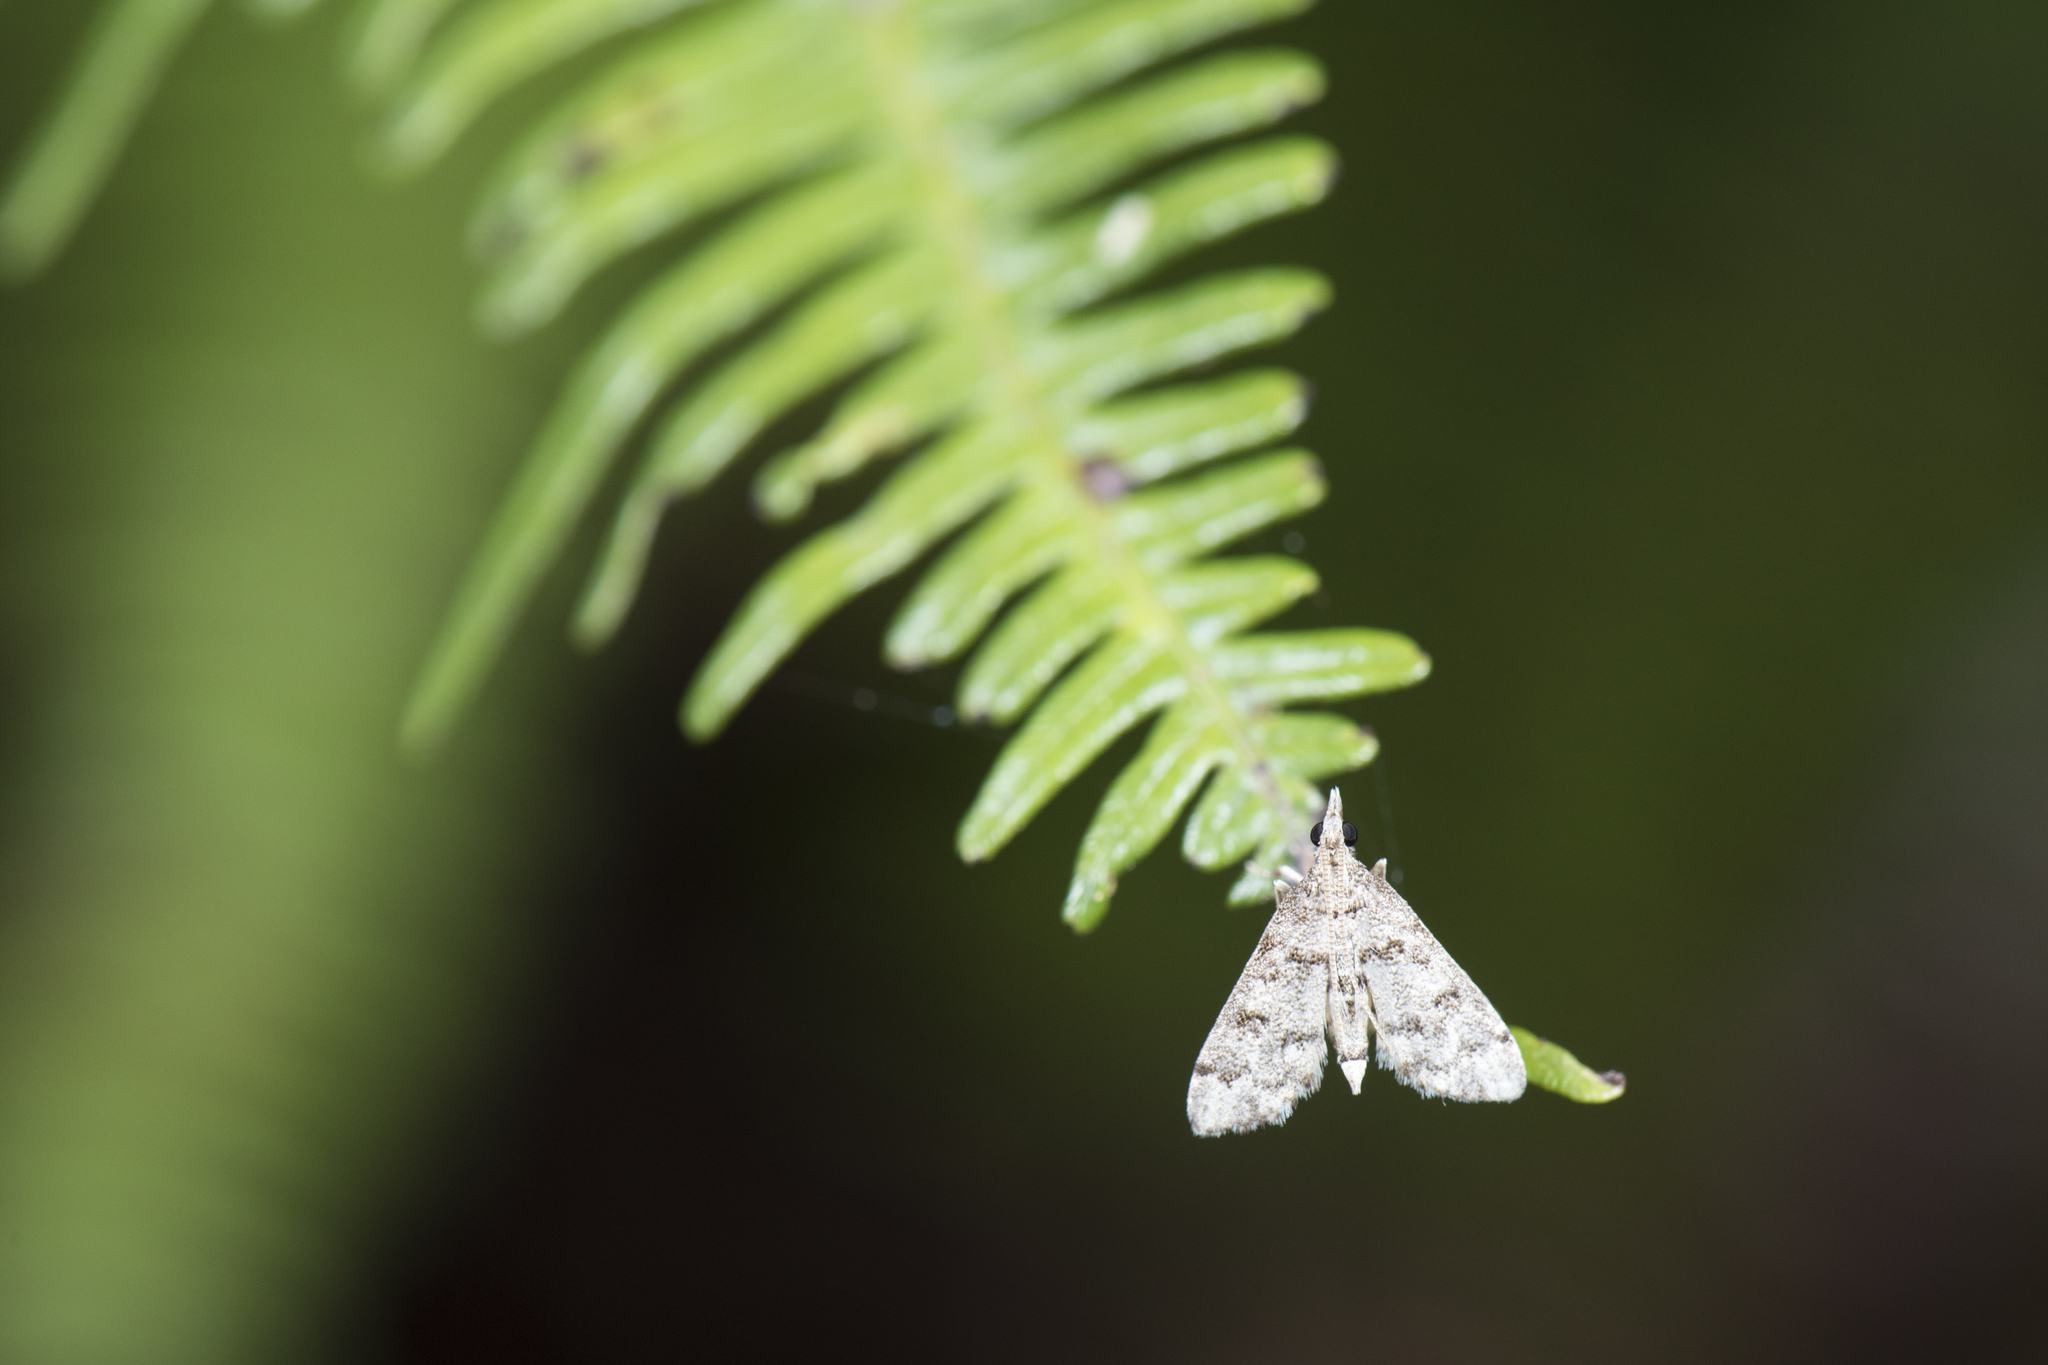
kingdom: Animalia
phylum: Arthropoda
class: Insecta
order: Lepidoptera
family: Crambidae
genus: Stenia
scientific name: Stenia Dolicharthria bruguieralis
